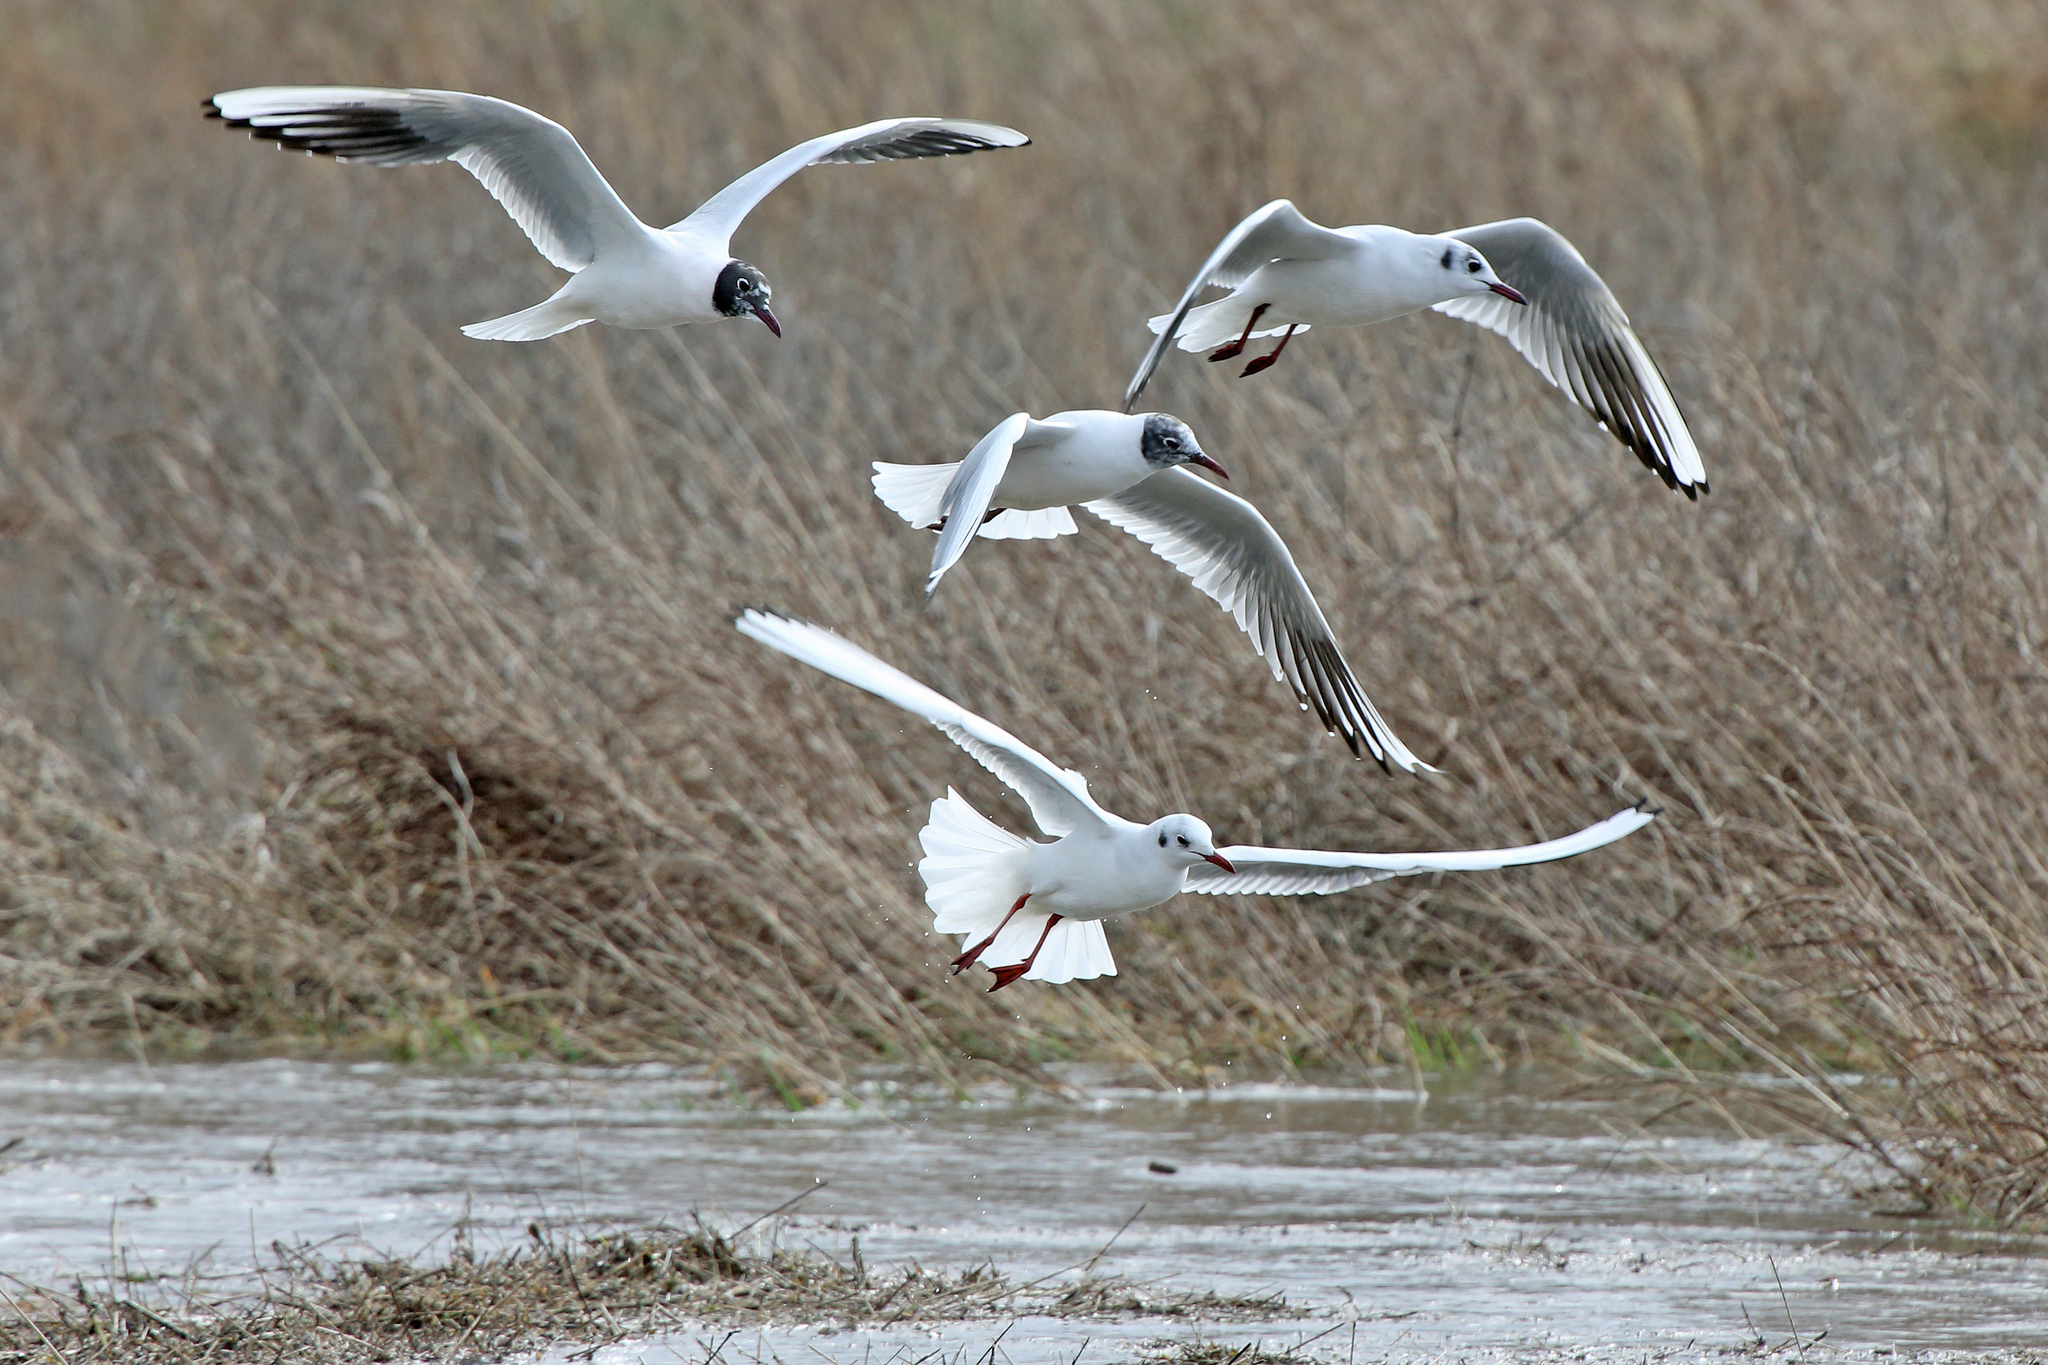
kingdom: Animalia
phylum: Chordata
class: Aves
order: Charadriiformes
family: Laridae
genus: Chroicocephalus
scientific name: Chroicocephalus ridibundus
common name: Black-headed gull
